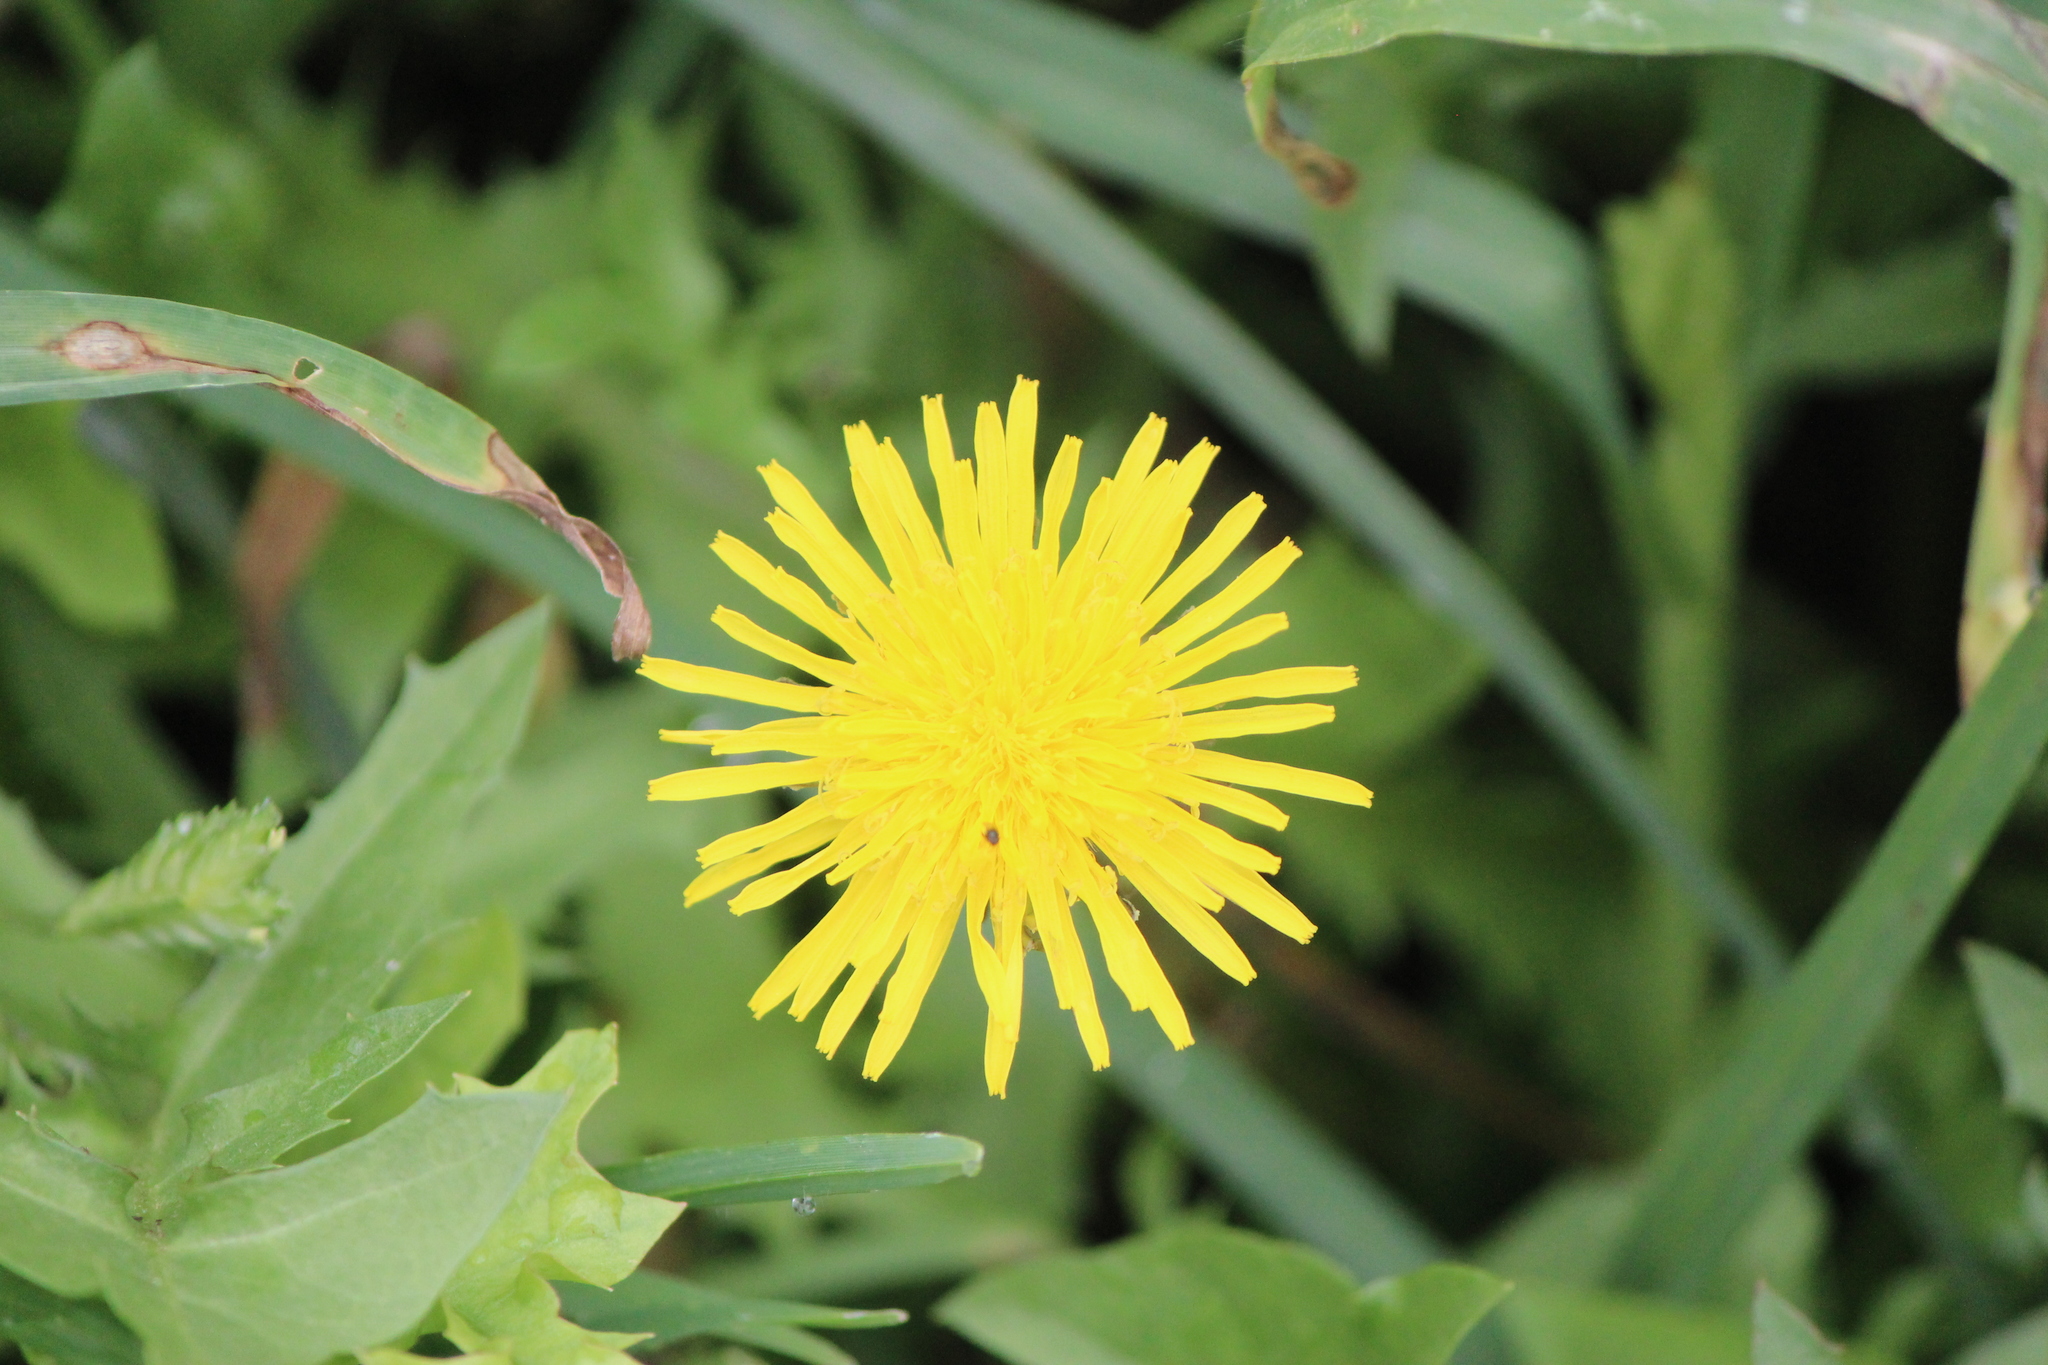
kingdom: Plantae
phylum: Tracheophyta
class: Magnoliopsida
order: Asterales
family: Asteraceae
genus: Taraxacum
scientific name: Taraxacum officinale
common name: Common dandelion
